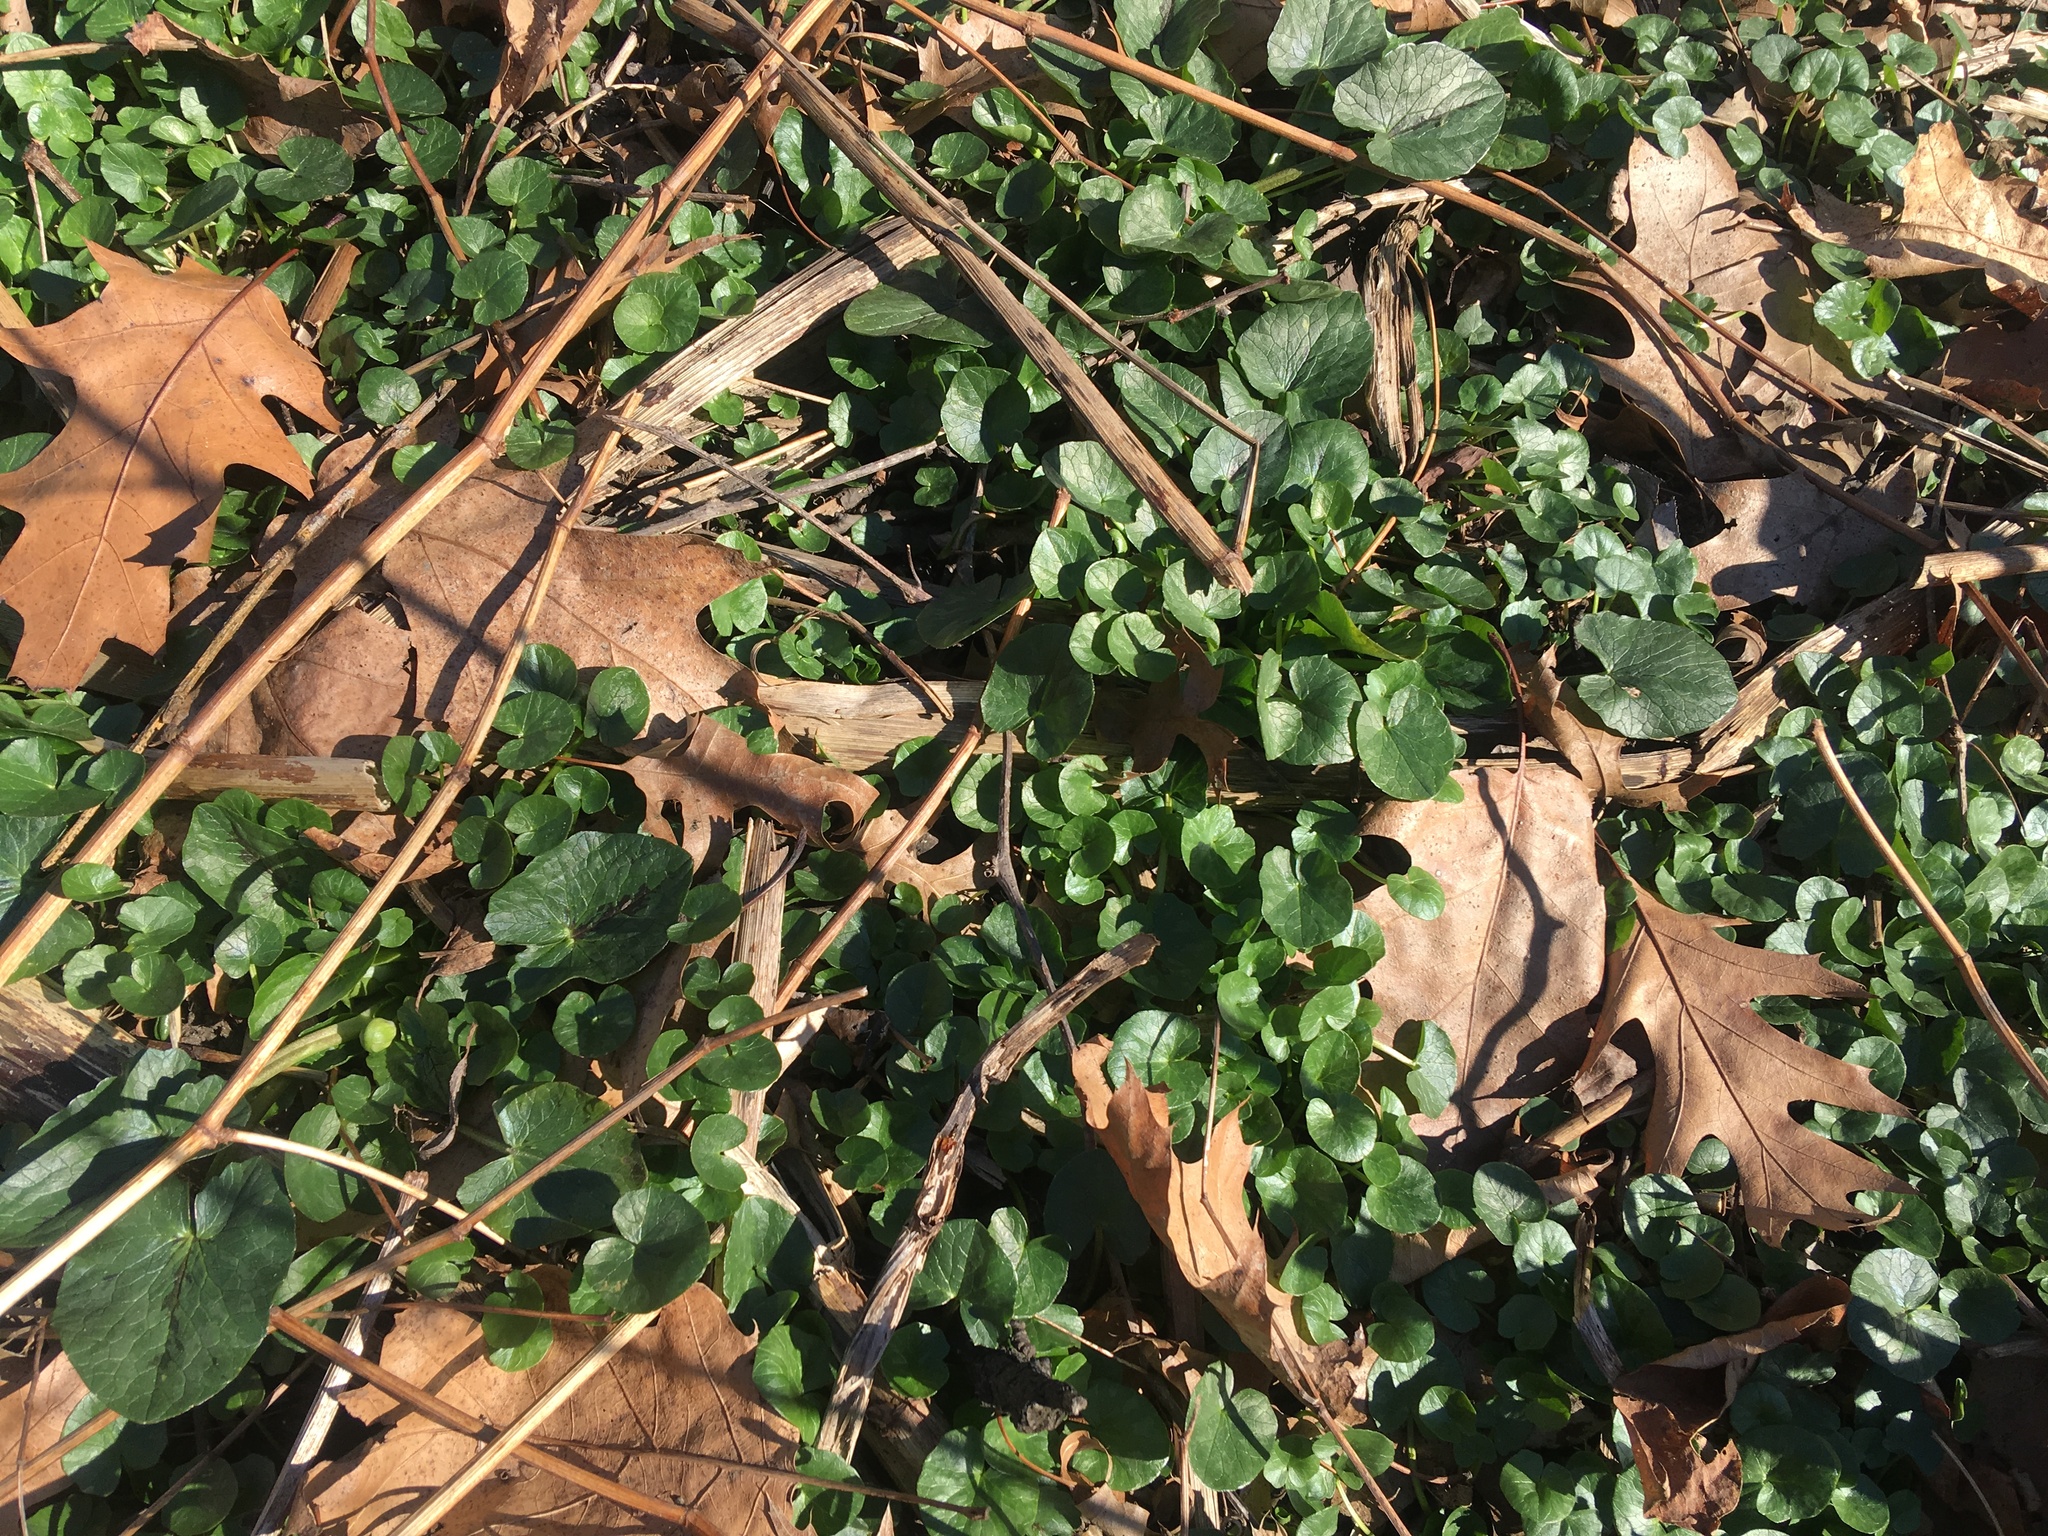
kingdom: Plantae
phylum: Tracheophyta
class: Magnoliopsida
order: Ranunculales
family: Ranunculaceae
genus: Ficaria
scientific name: Ficaria verna
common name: Lesser celandine
